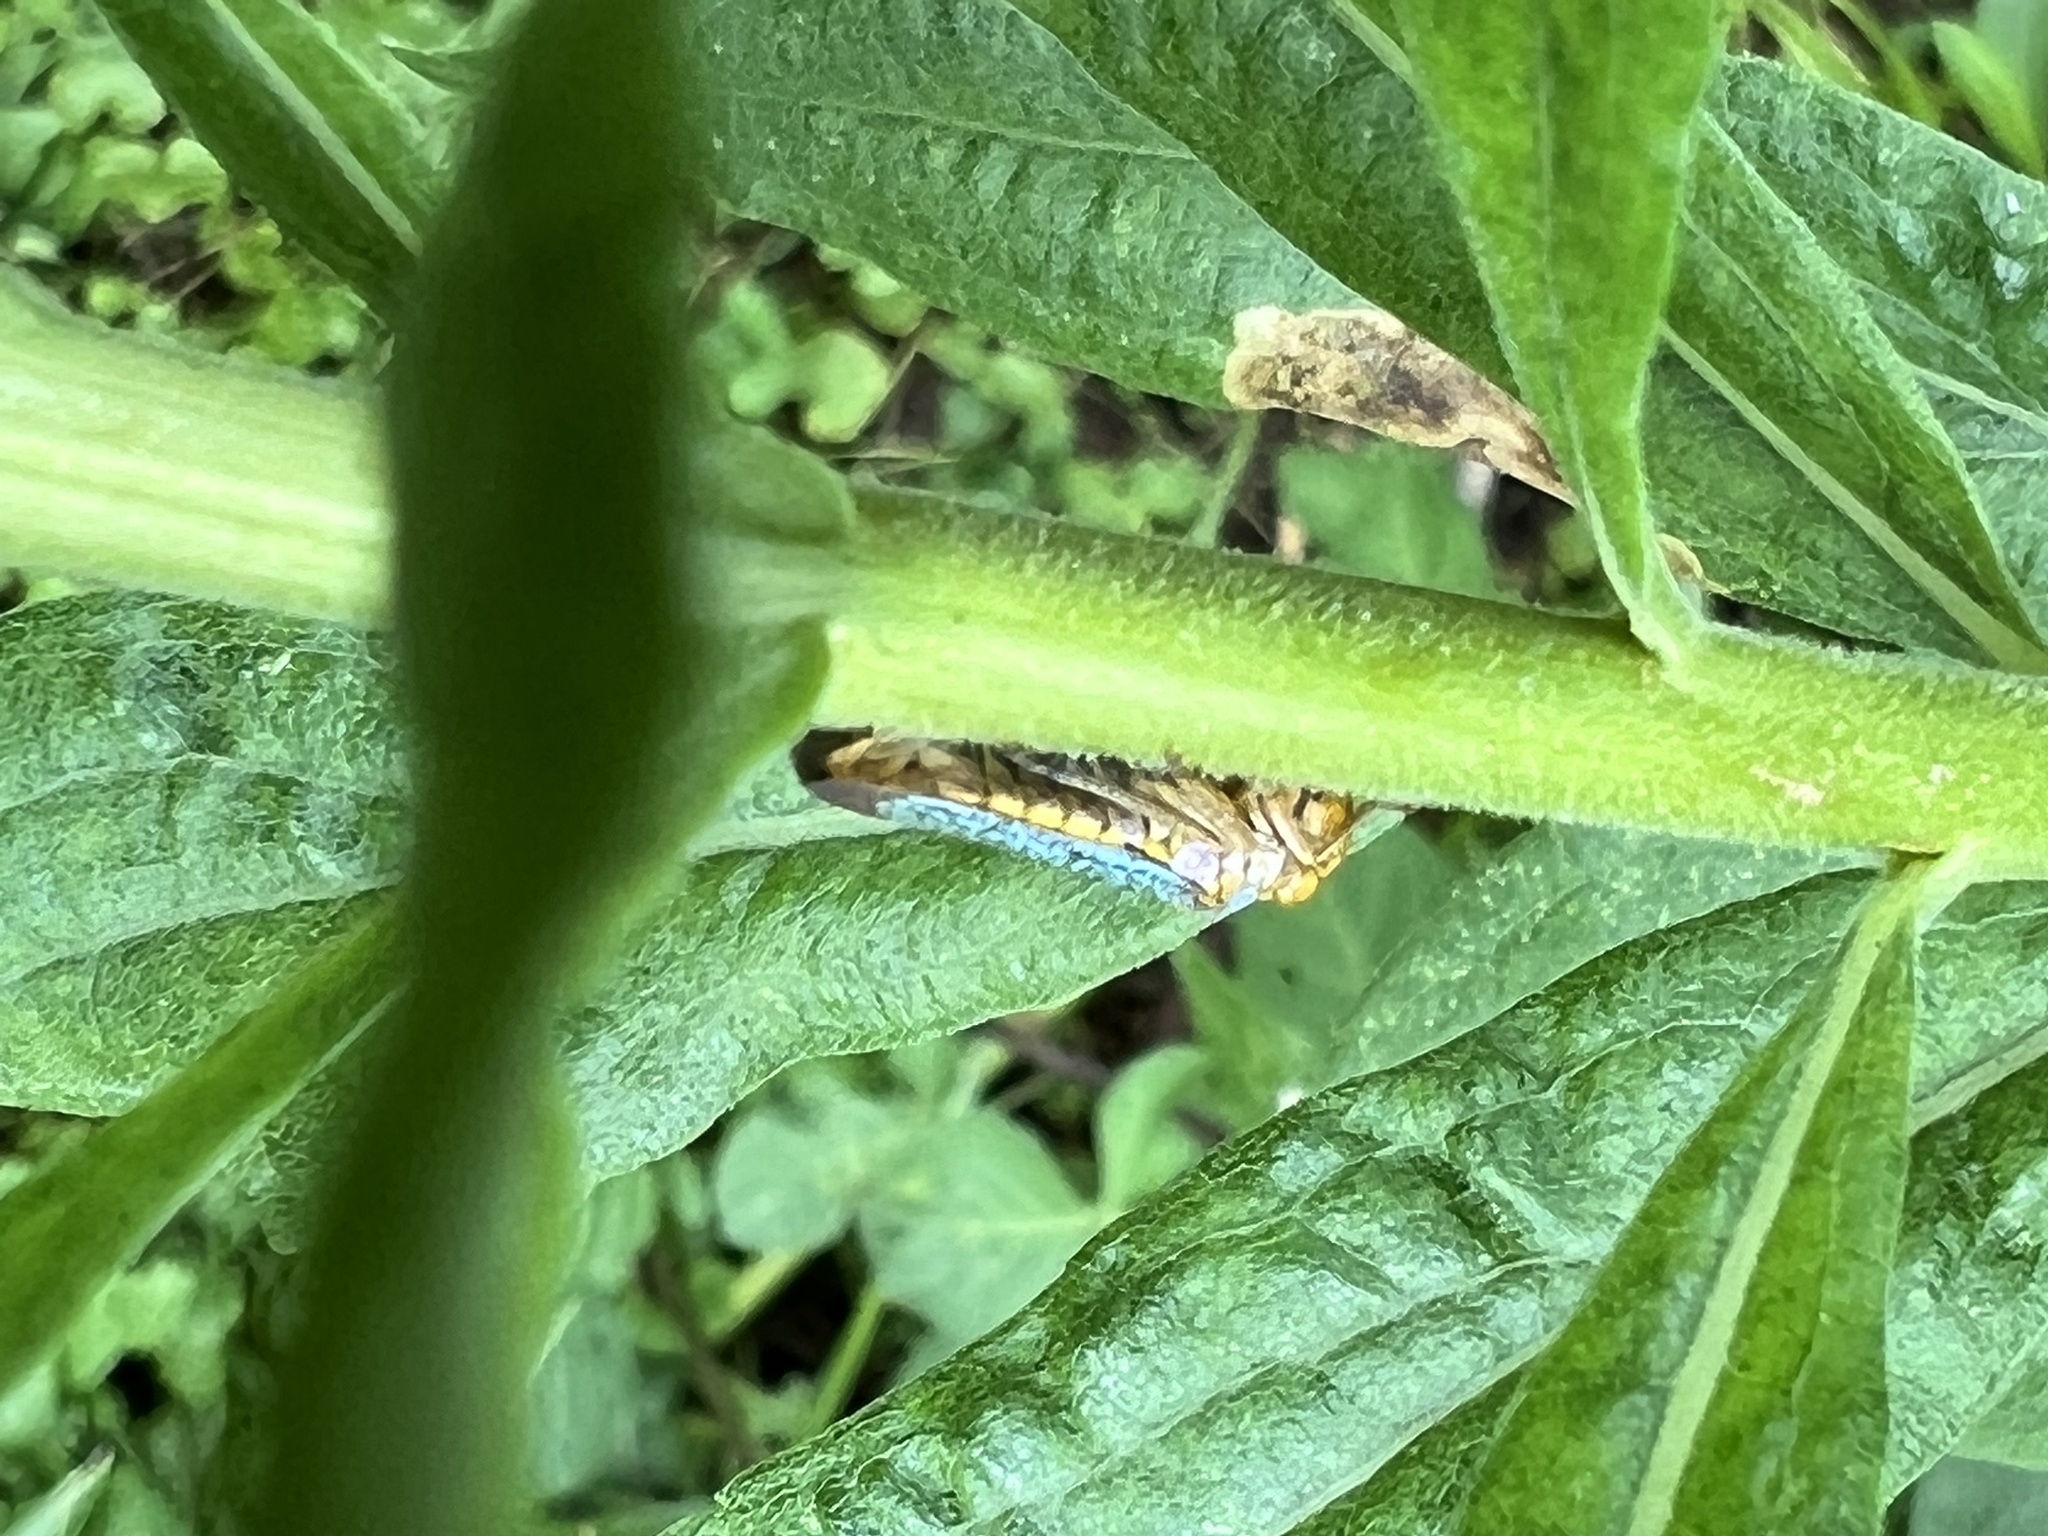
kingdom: Animalia
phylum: Arthropoda
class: Insecta
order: Hemiptera
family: Cicadellidae
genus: Oncometopia
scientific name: Oncometopia orbona
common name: Broad-headed sharpshooter
